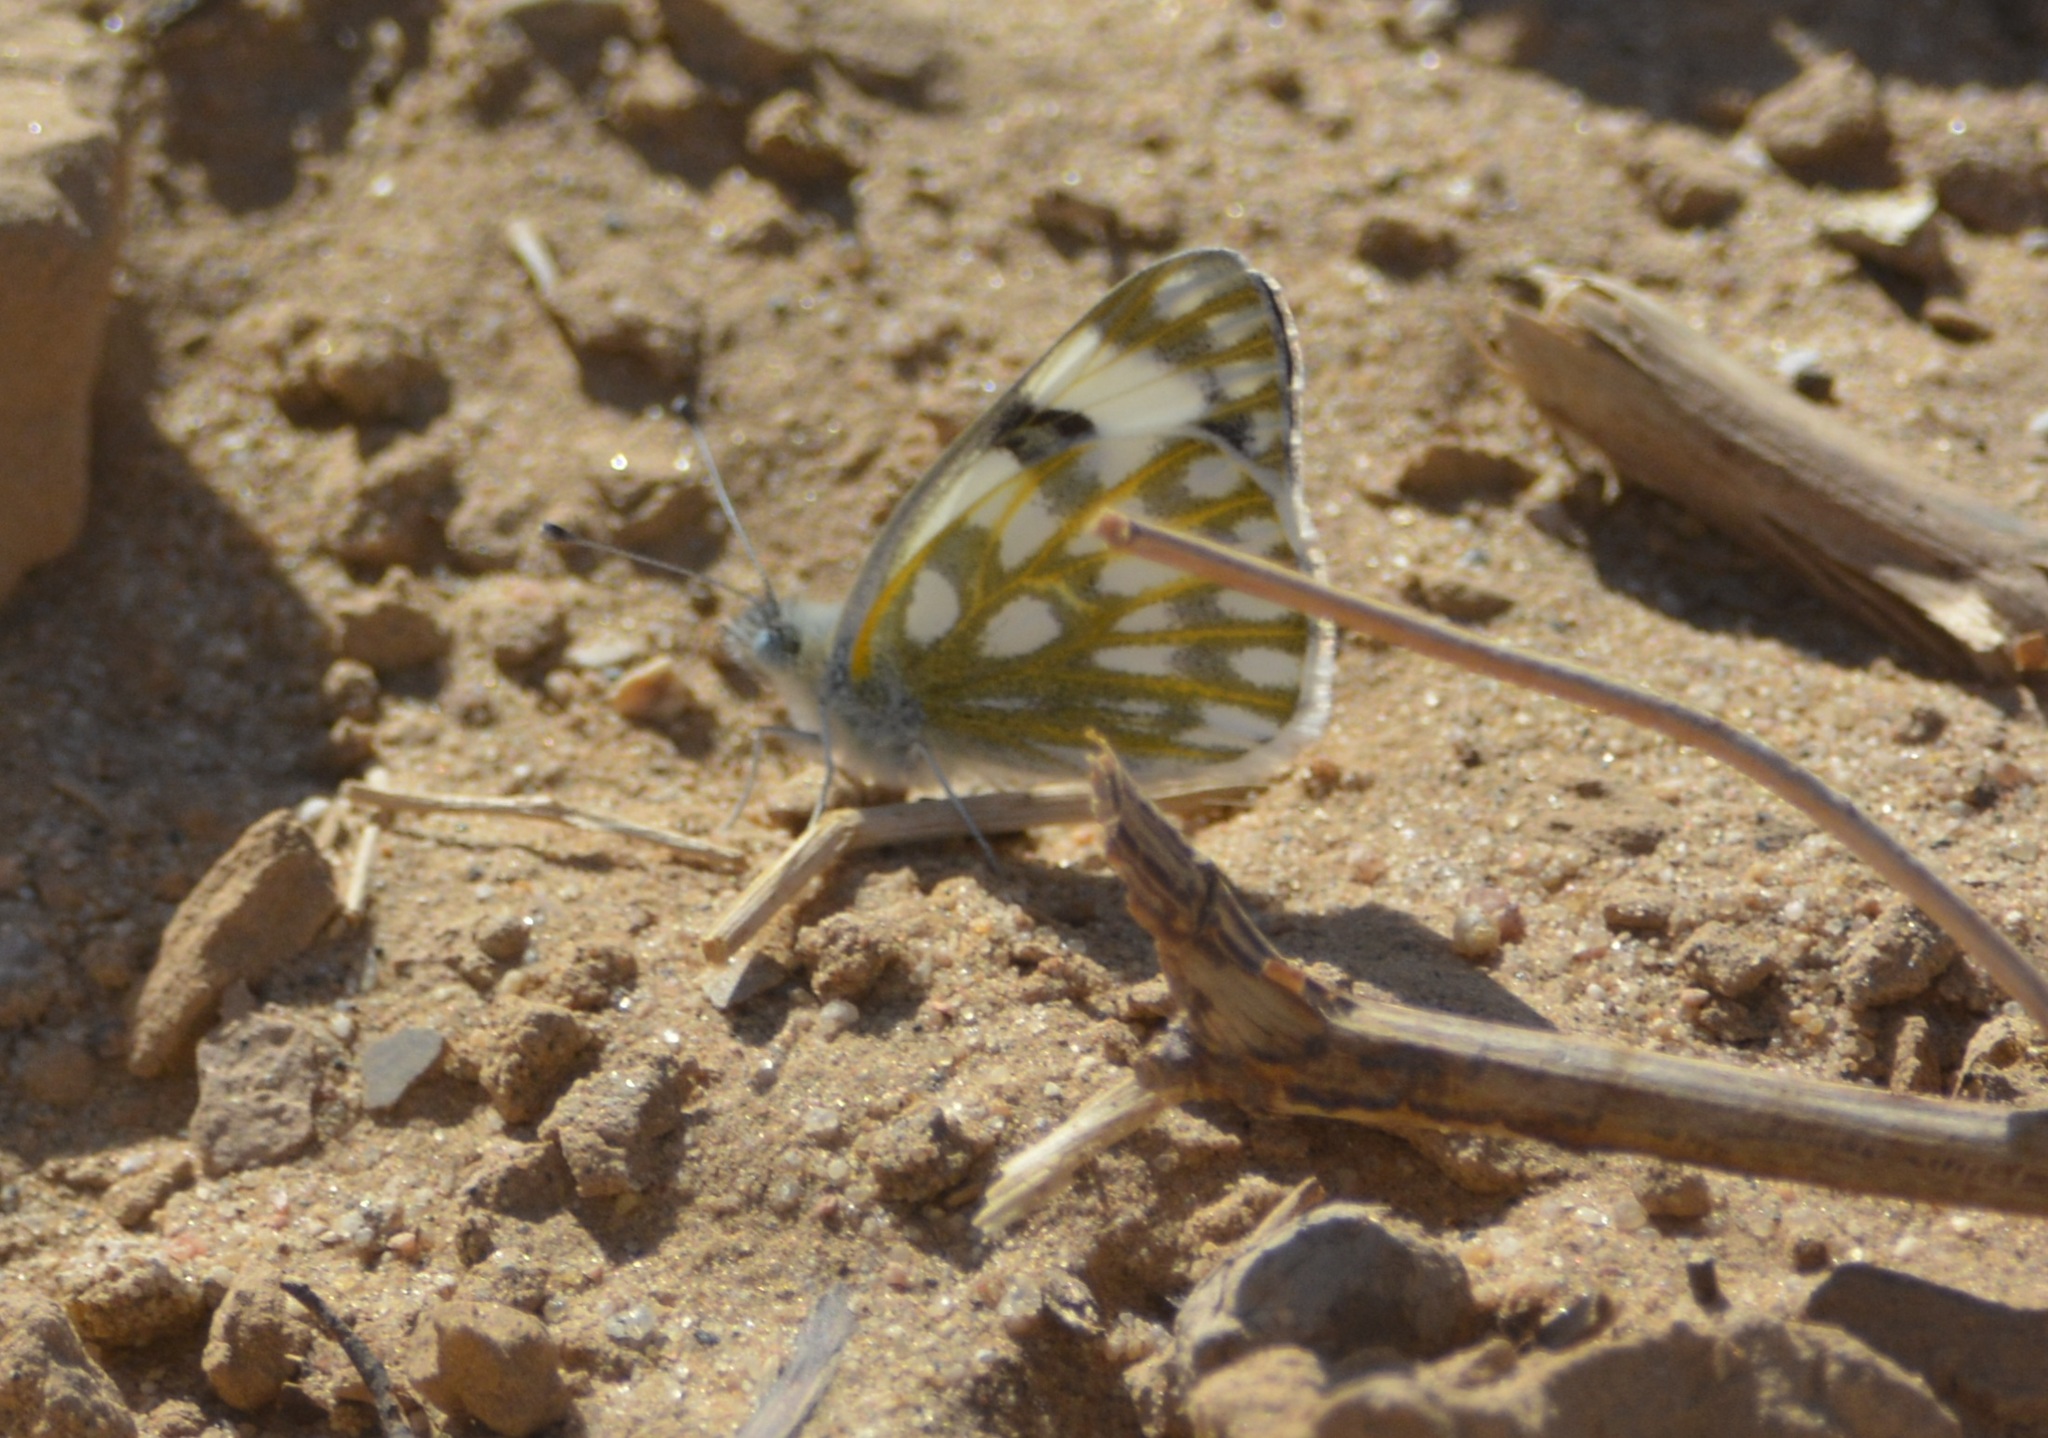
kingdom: Animalia
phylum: Arthropoda
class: Insecta
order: Lepidoptera
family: Pieridae
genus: Pontia
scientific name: Pontia glauconome
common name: Desert bath white
